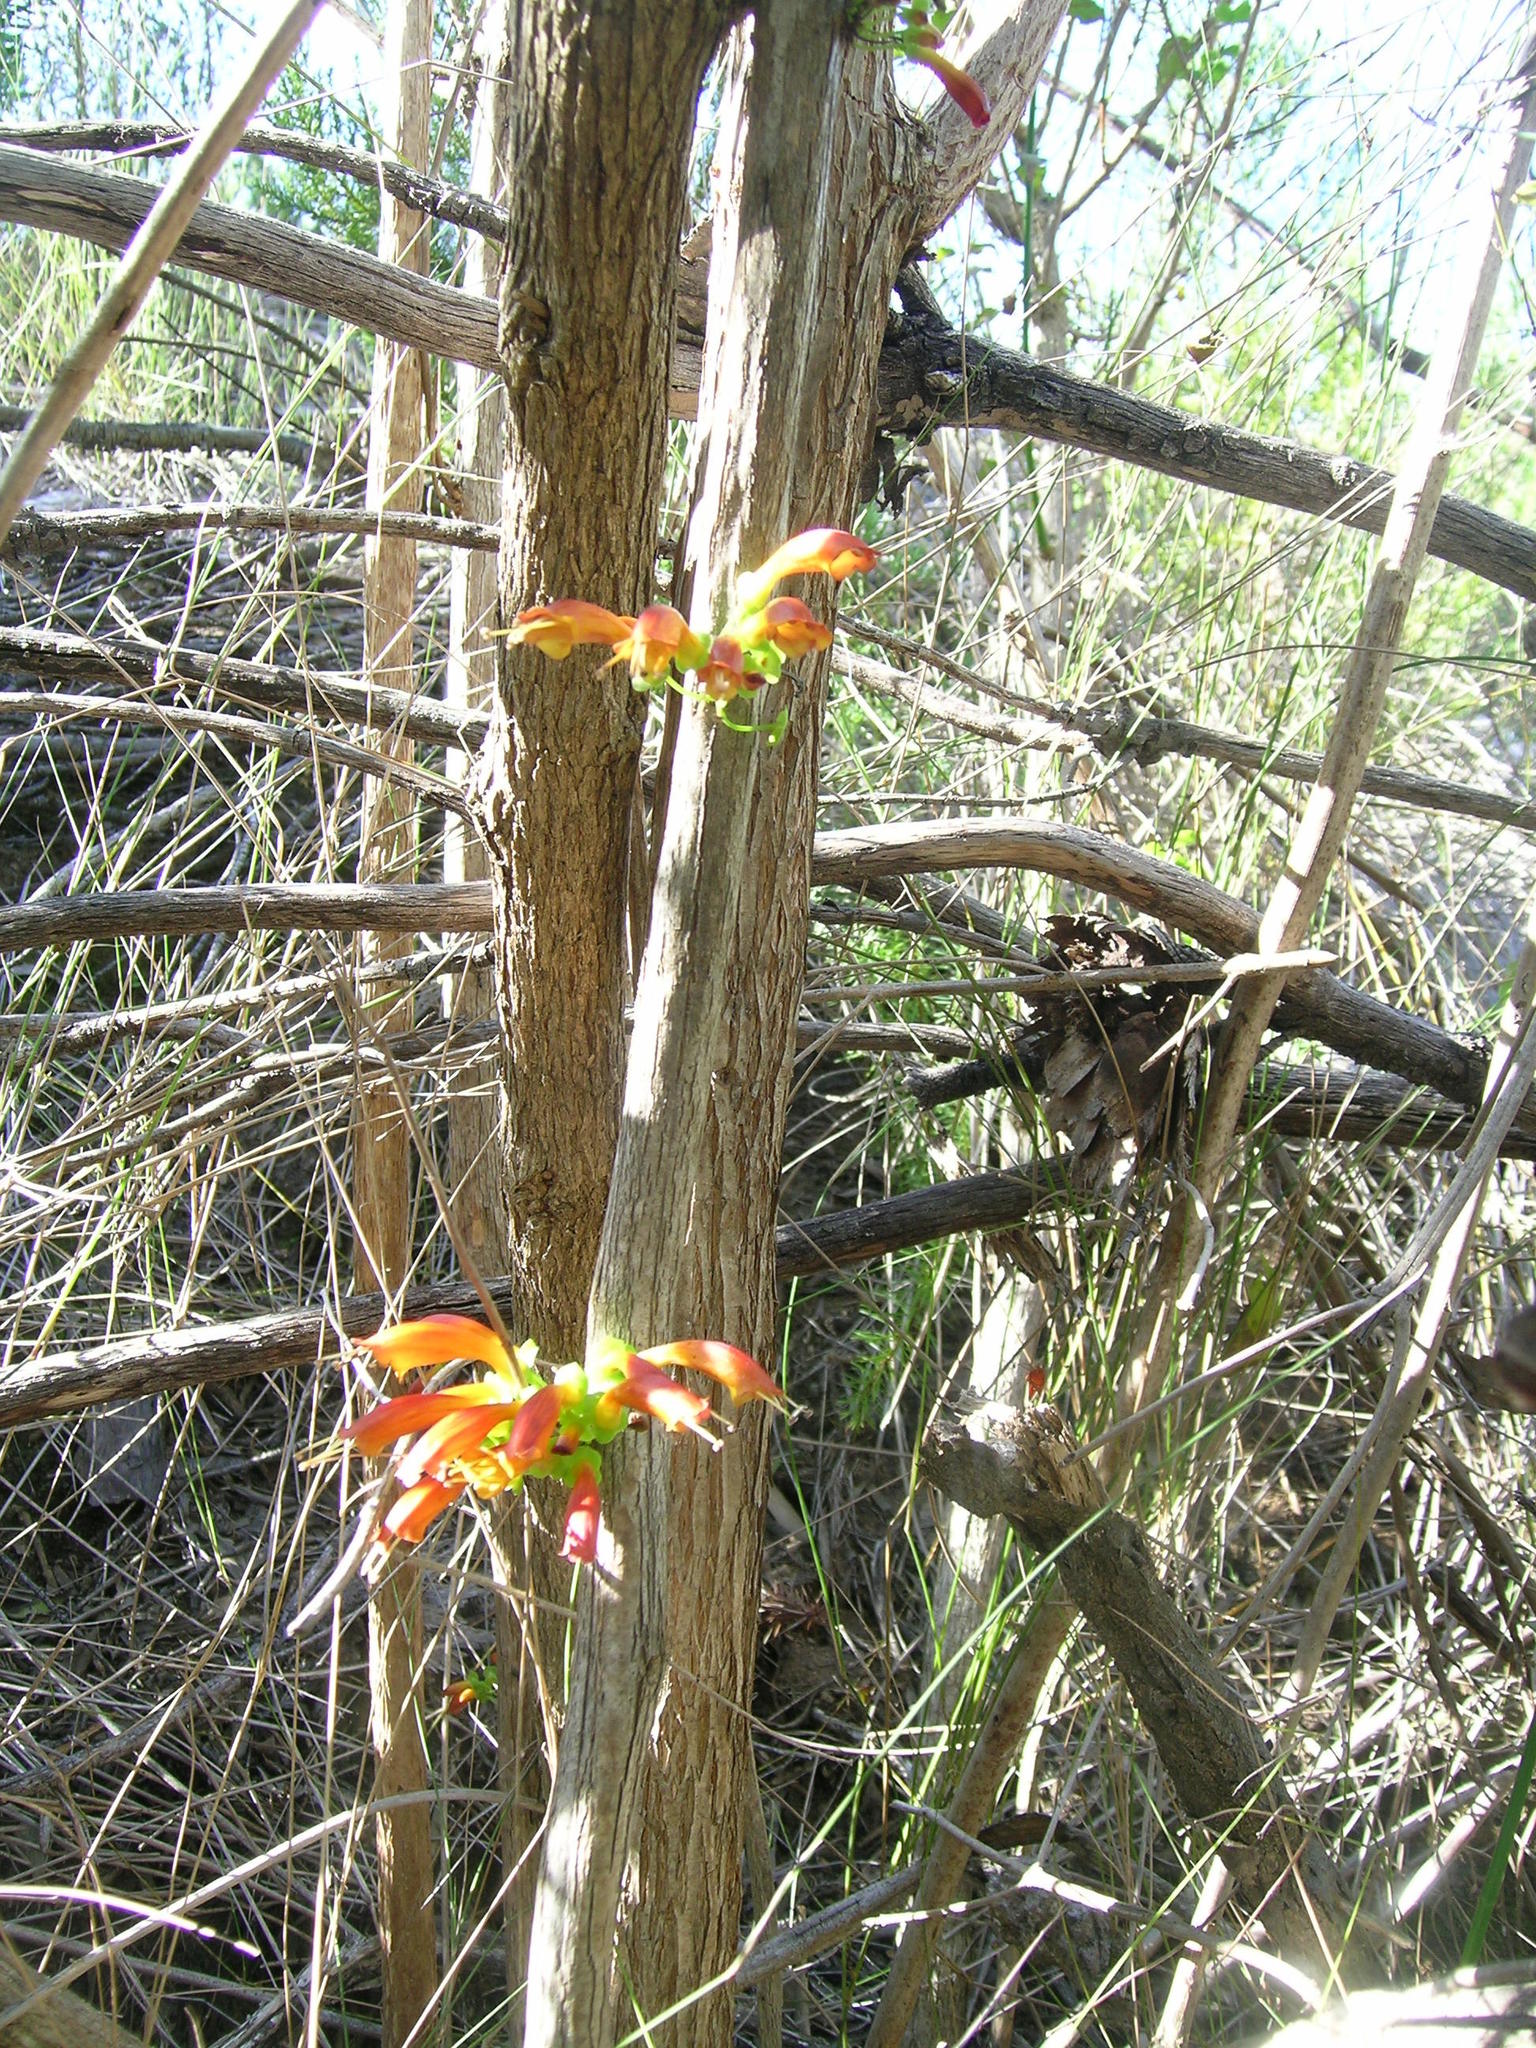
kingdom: Plantae
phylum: Tracheophyta
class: Magnoliopsida
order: Lamiales
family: Stilbaceae
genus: Halleria
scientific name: Halleria lucida
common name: Tree fuschia
